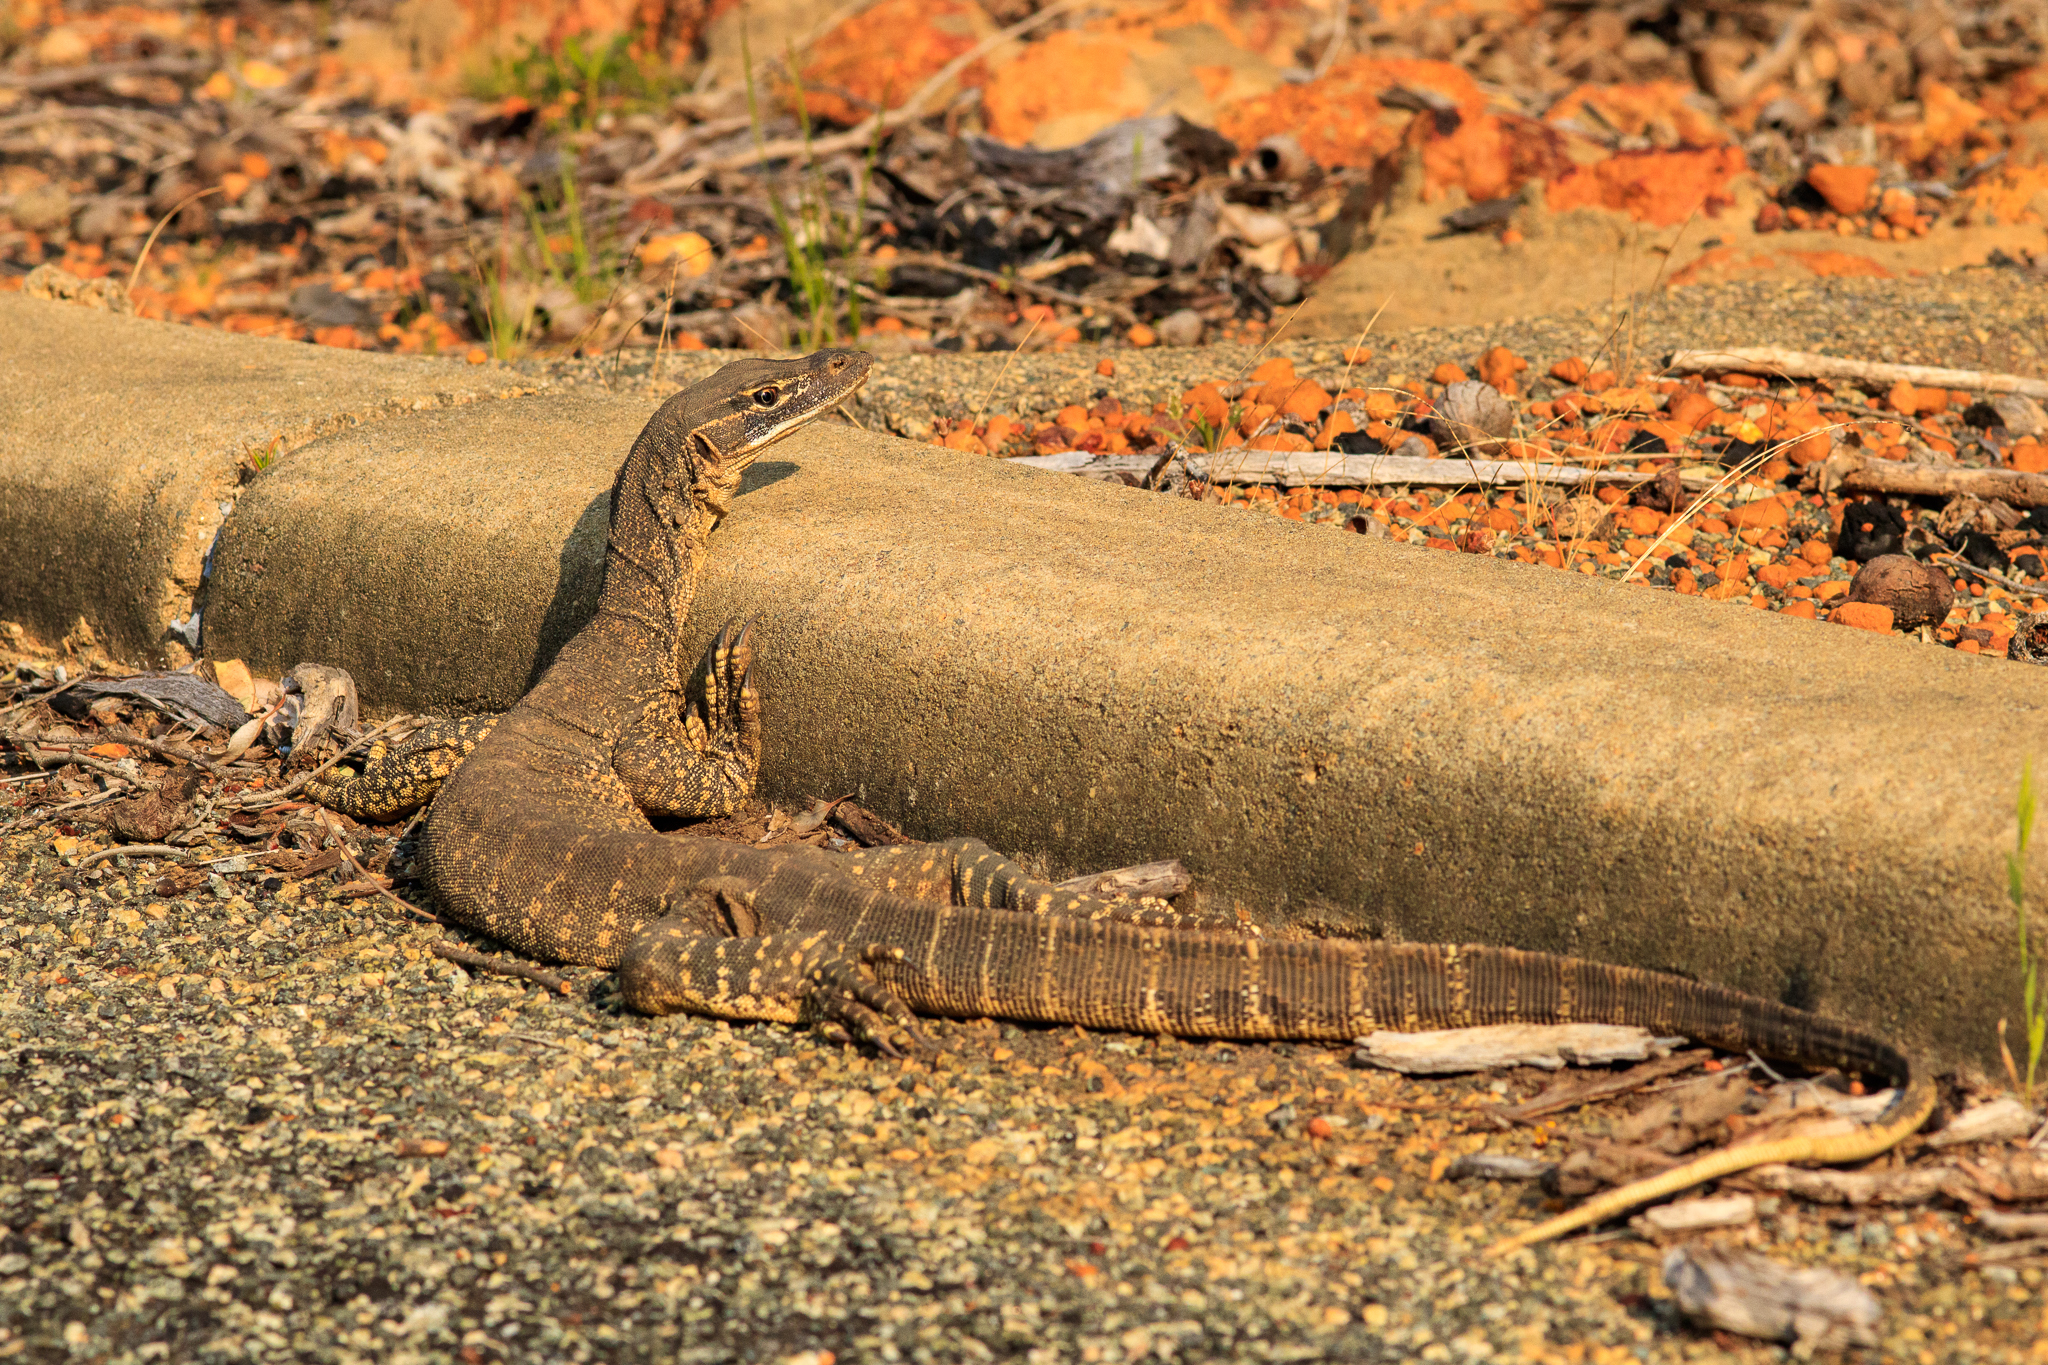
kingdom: Animalia
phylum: Chordata
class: Squamata
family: Varanidae
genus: Varanus
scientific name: Varanus gouldii
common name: Gould's goanna
